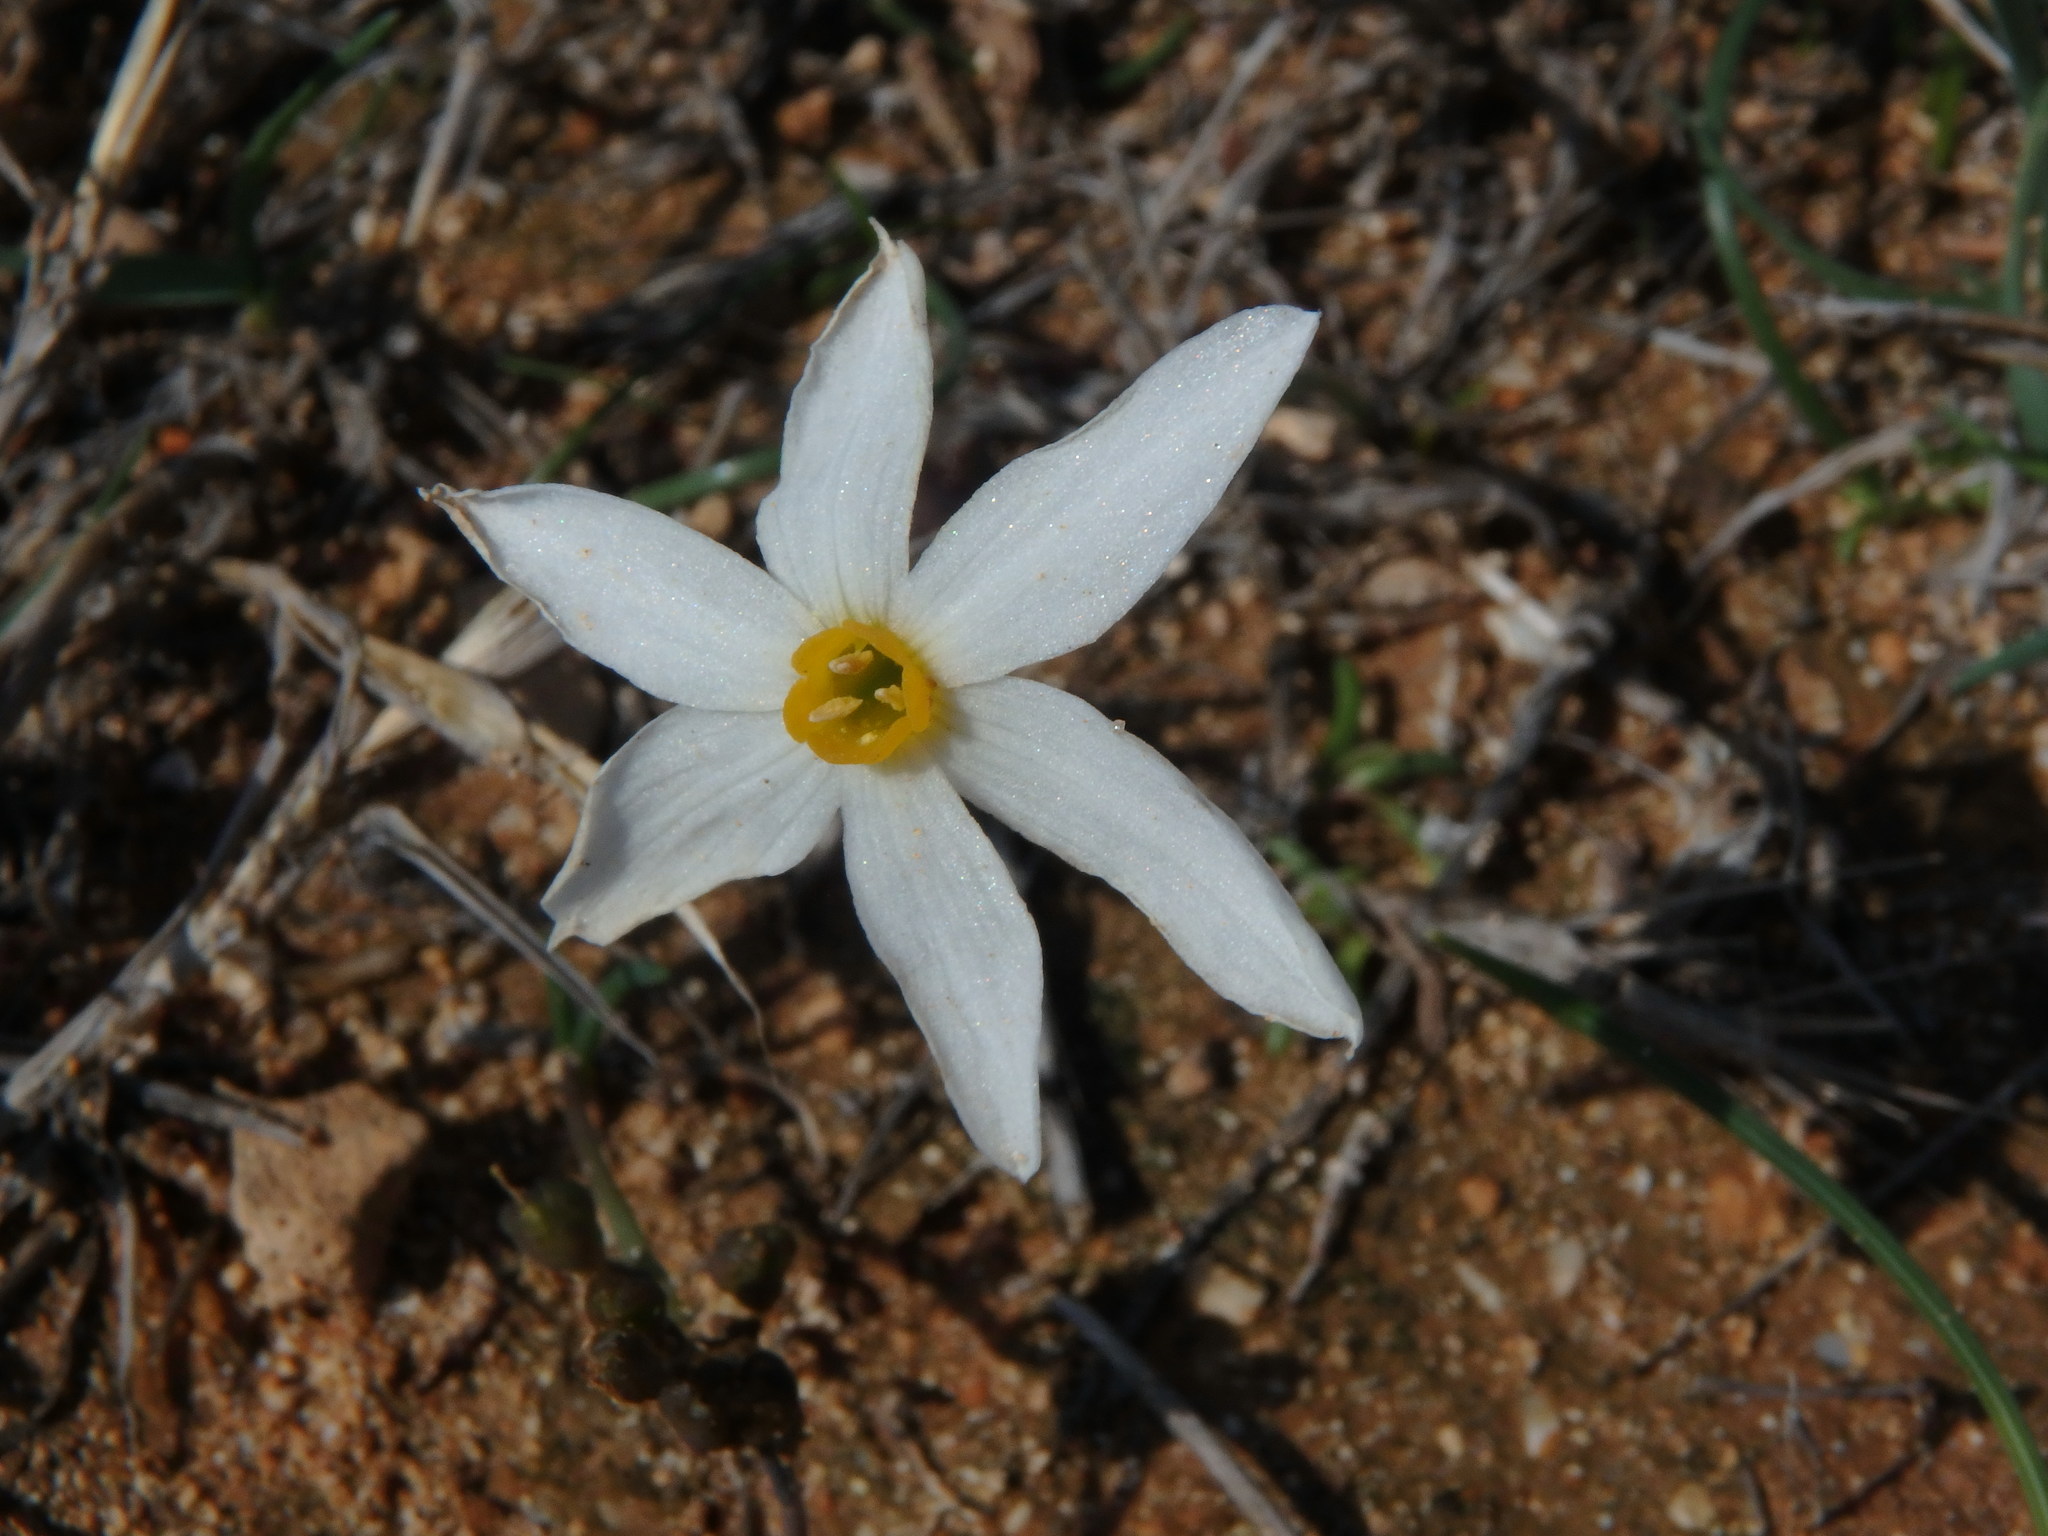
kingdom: Plantae
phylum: Tracheophyta
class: Liliopsida
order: Asparagales
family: Amaryllidaceae
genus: Narcissus
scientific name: Narcissus deficiens
